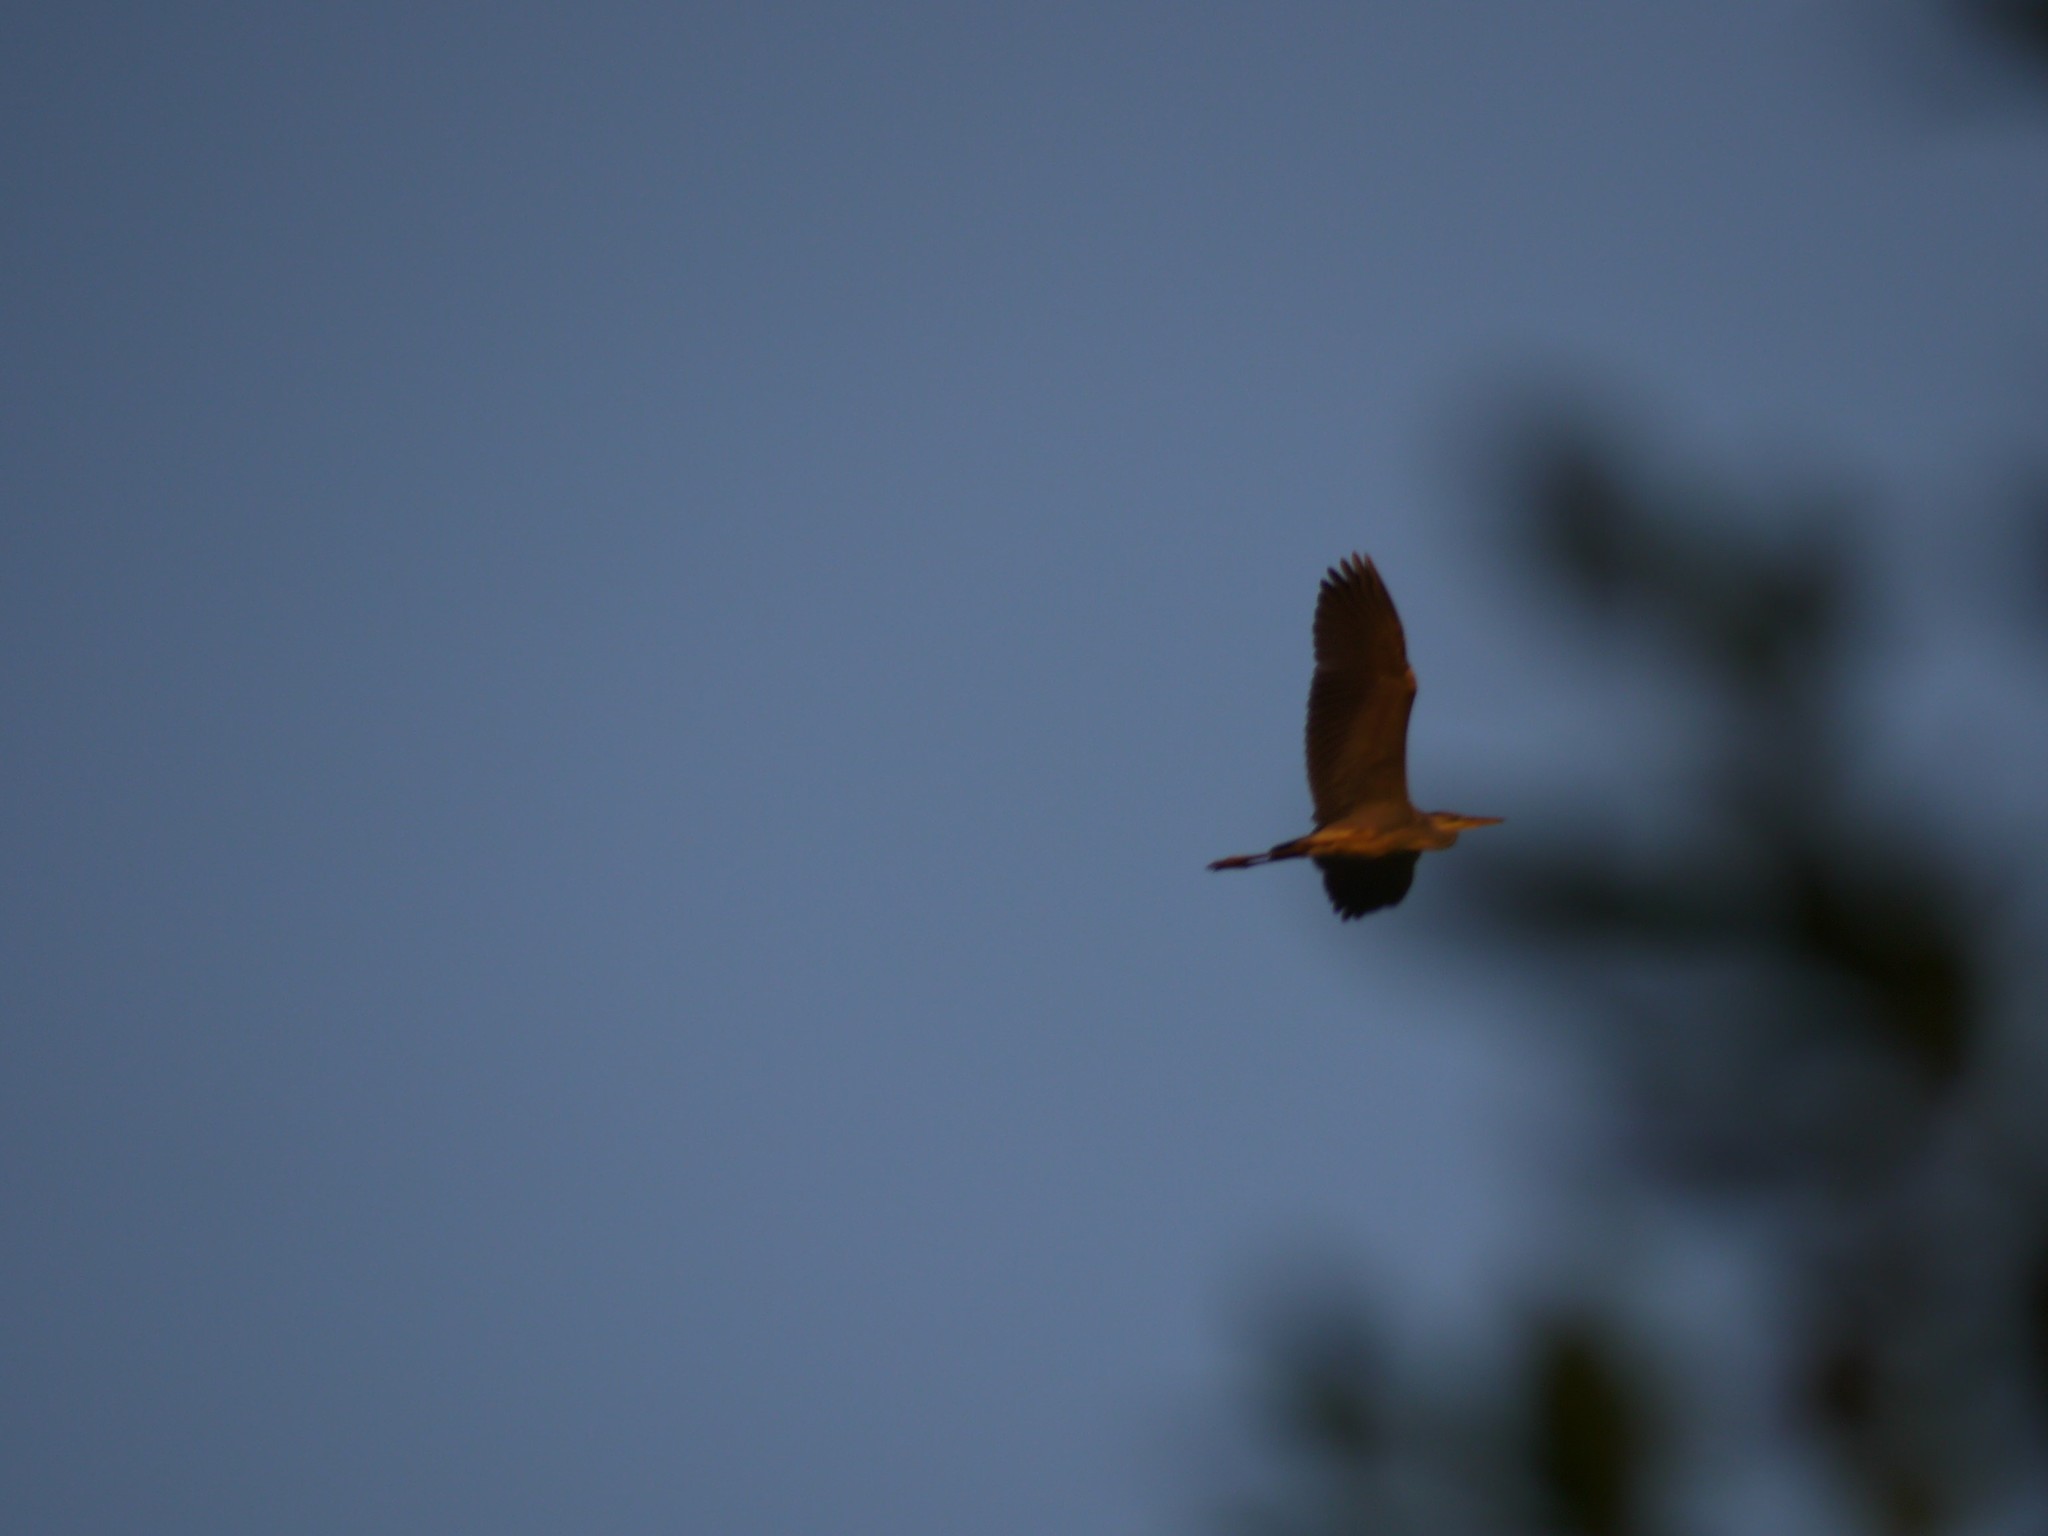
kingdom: Animalia
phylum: Chordata
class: Aves
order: Pelecaniformes
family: Ardeidae
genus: Ardea
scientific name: Ardea cinerea
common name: Grey heron
